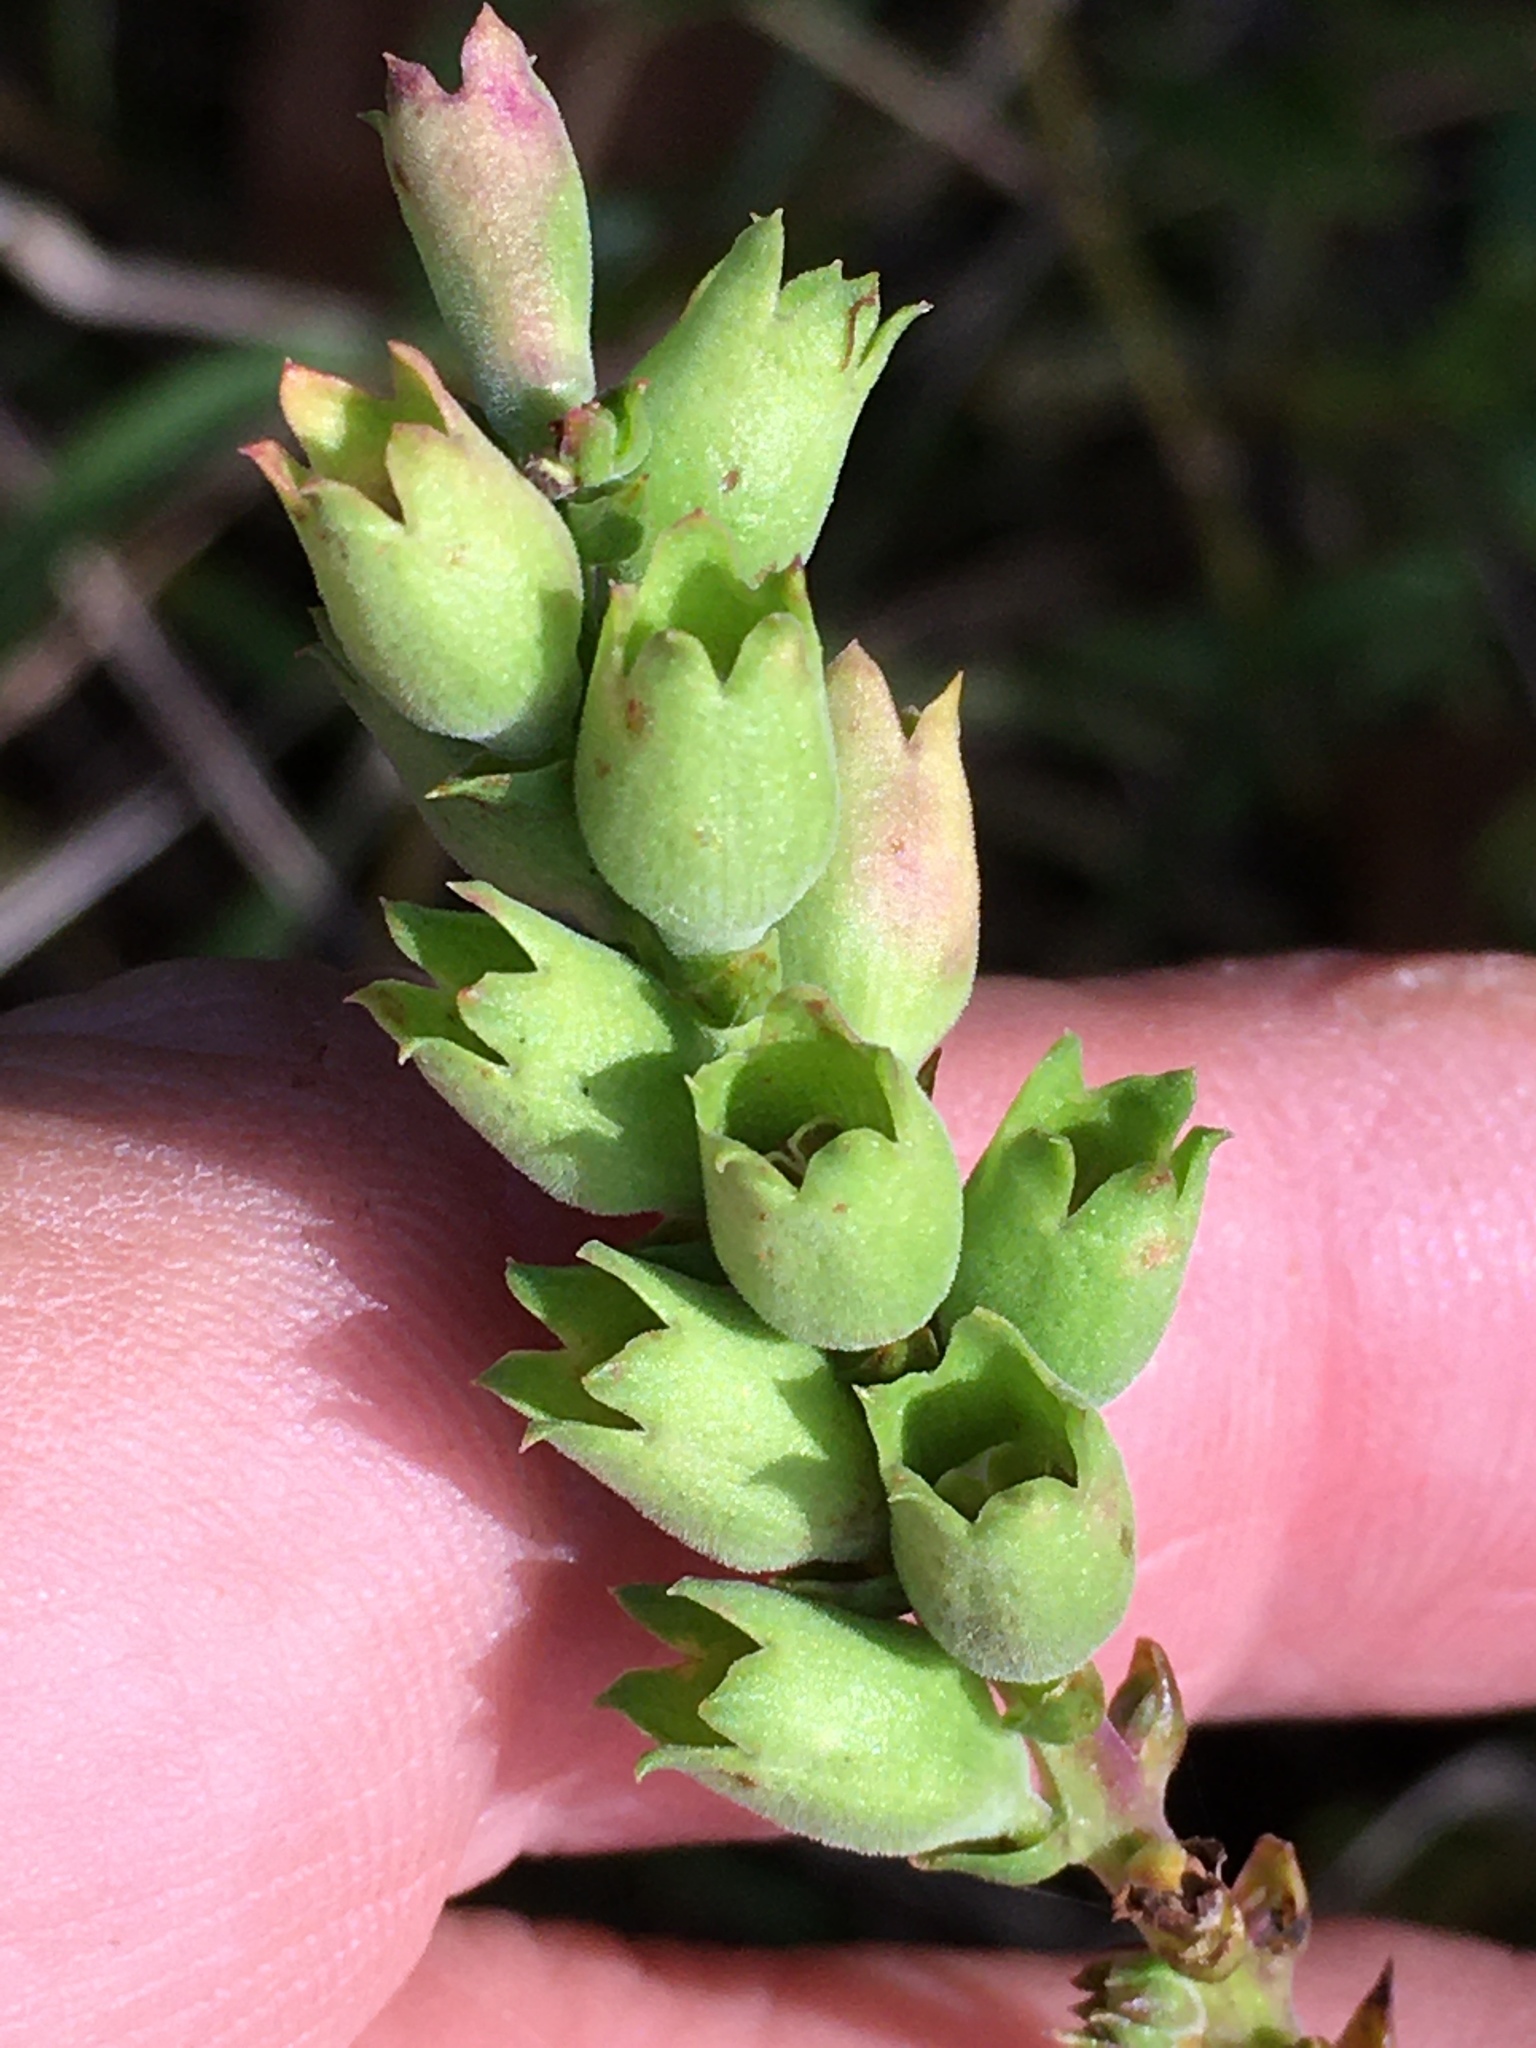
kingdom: Plantae
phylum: Tracheophyta
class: Magnoliopsida
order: Lamiales
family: Lamiaceae
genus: Physostegia
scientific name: Physostegia virginiana
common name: Obedient-plant
